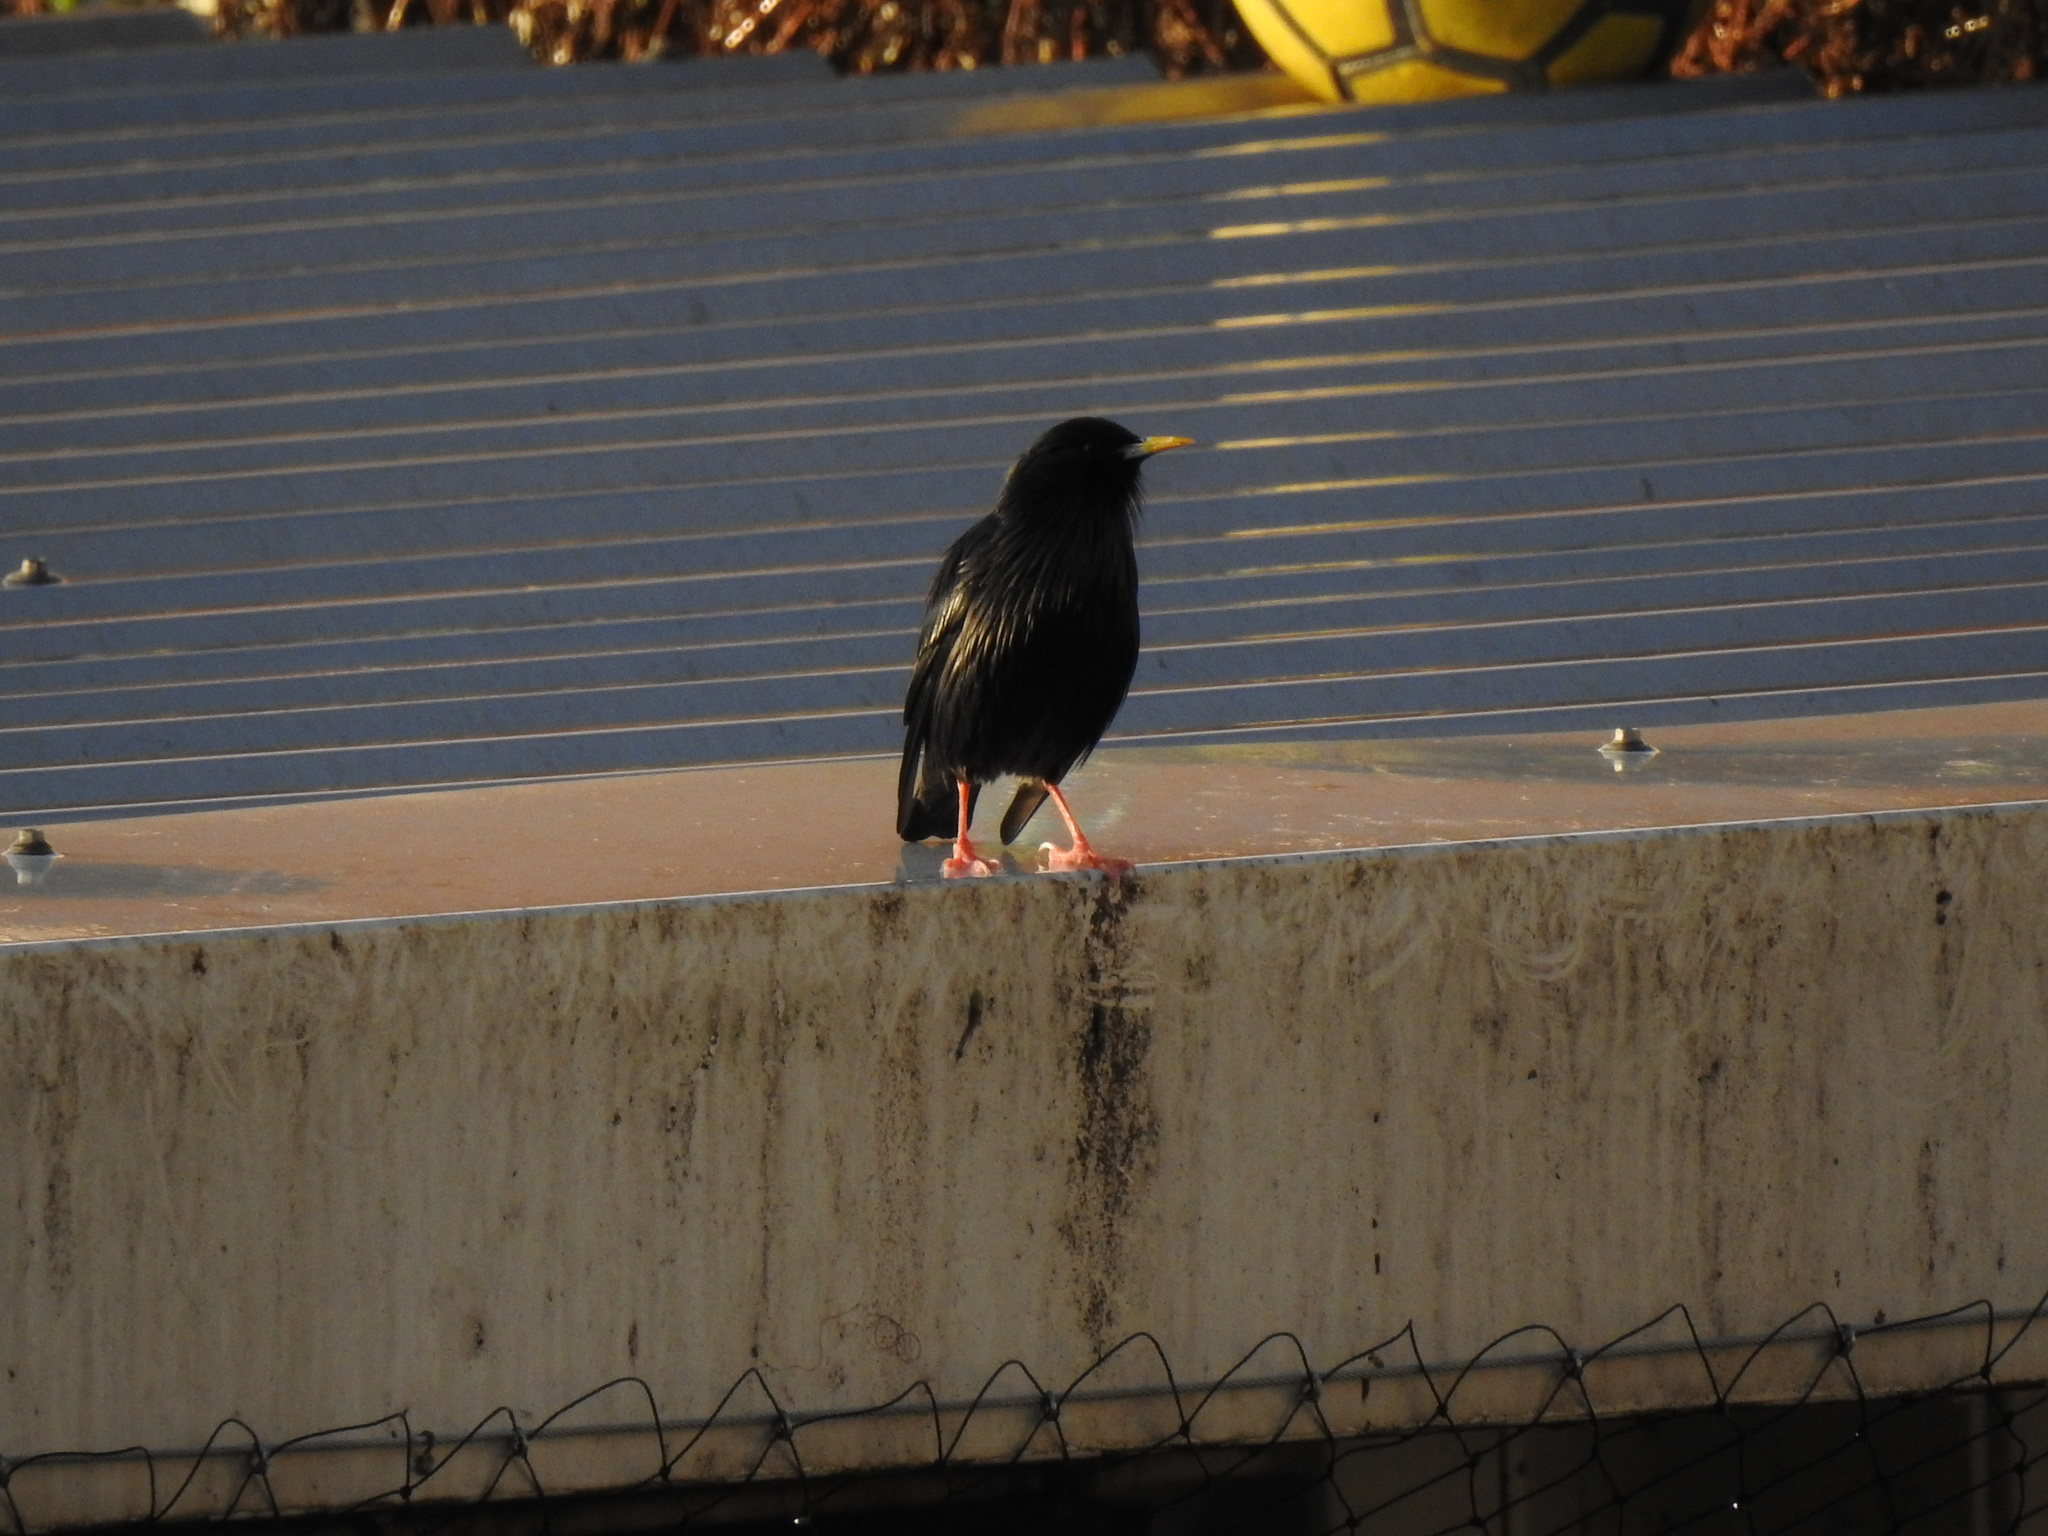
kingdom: Animalia
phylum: Chordata
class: Aves
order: Passeriformes
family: Sturnidae
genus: Sturnus
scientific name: Sturnus unicolor
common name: Spotless starling
